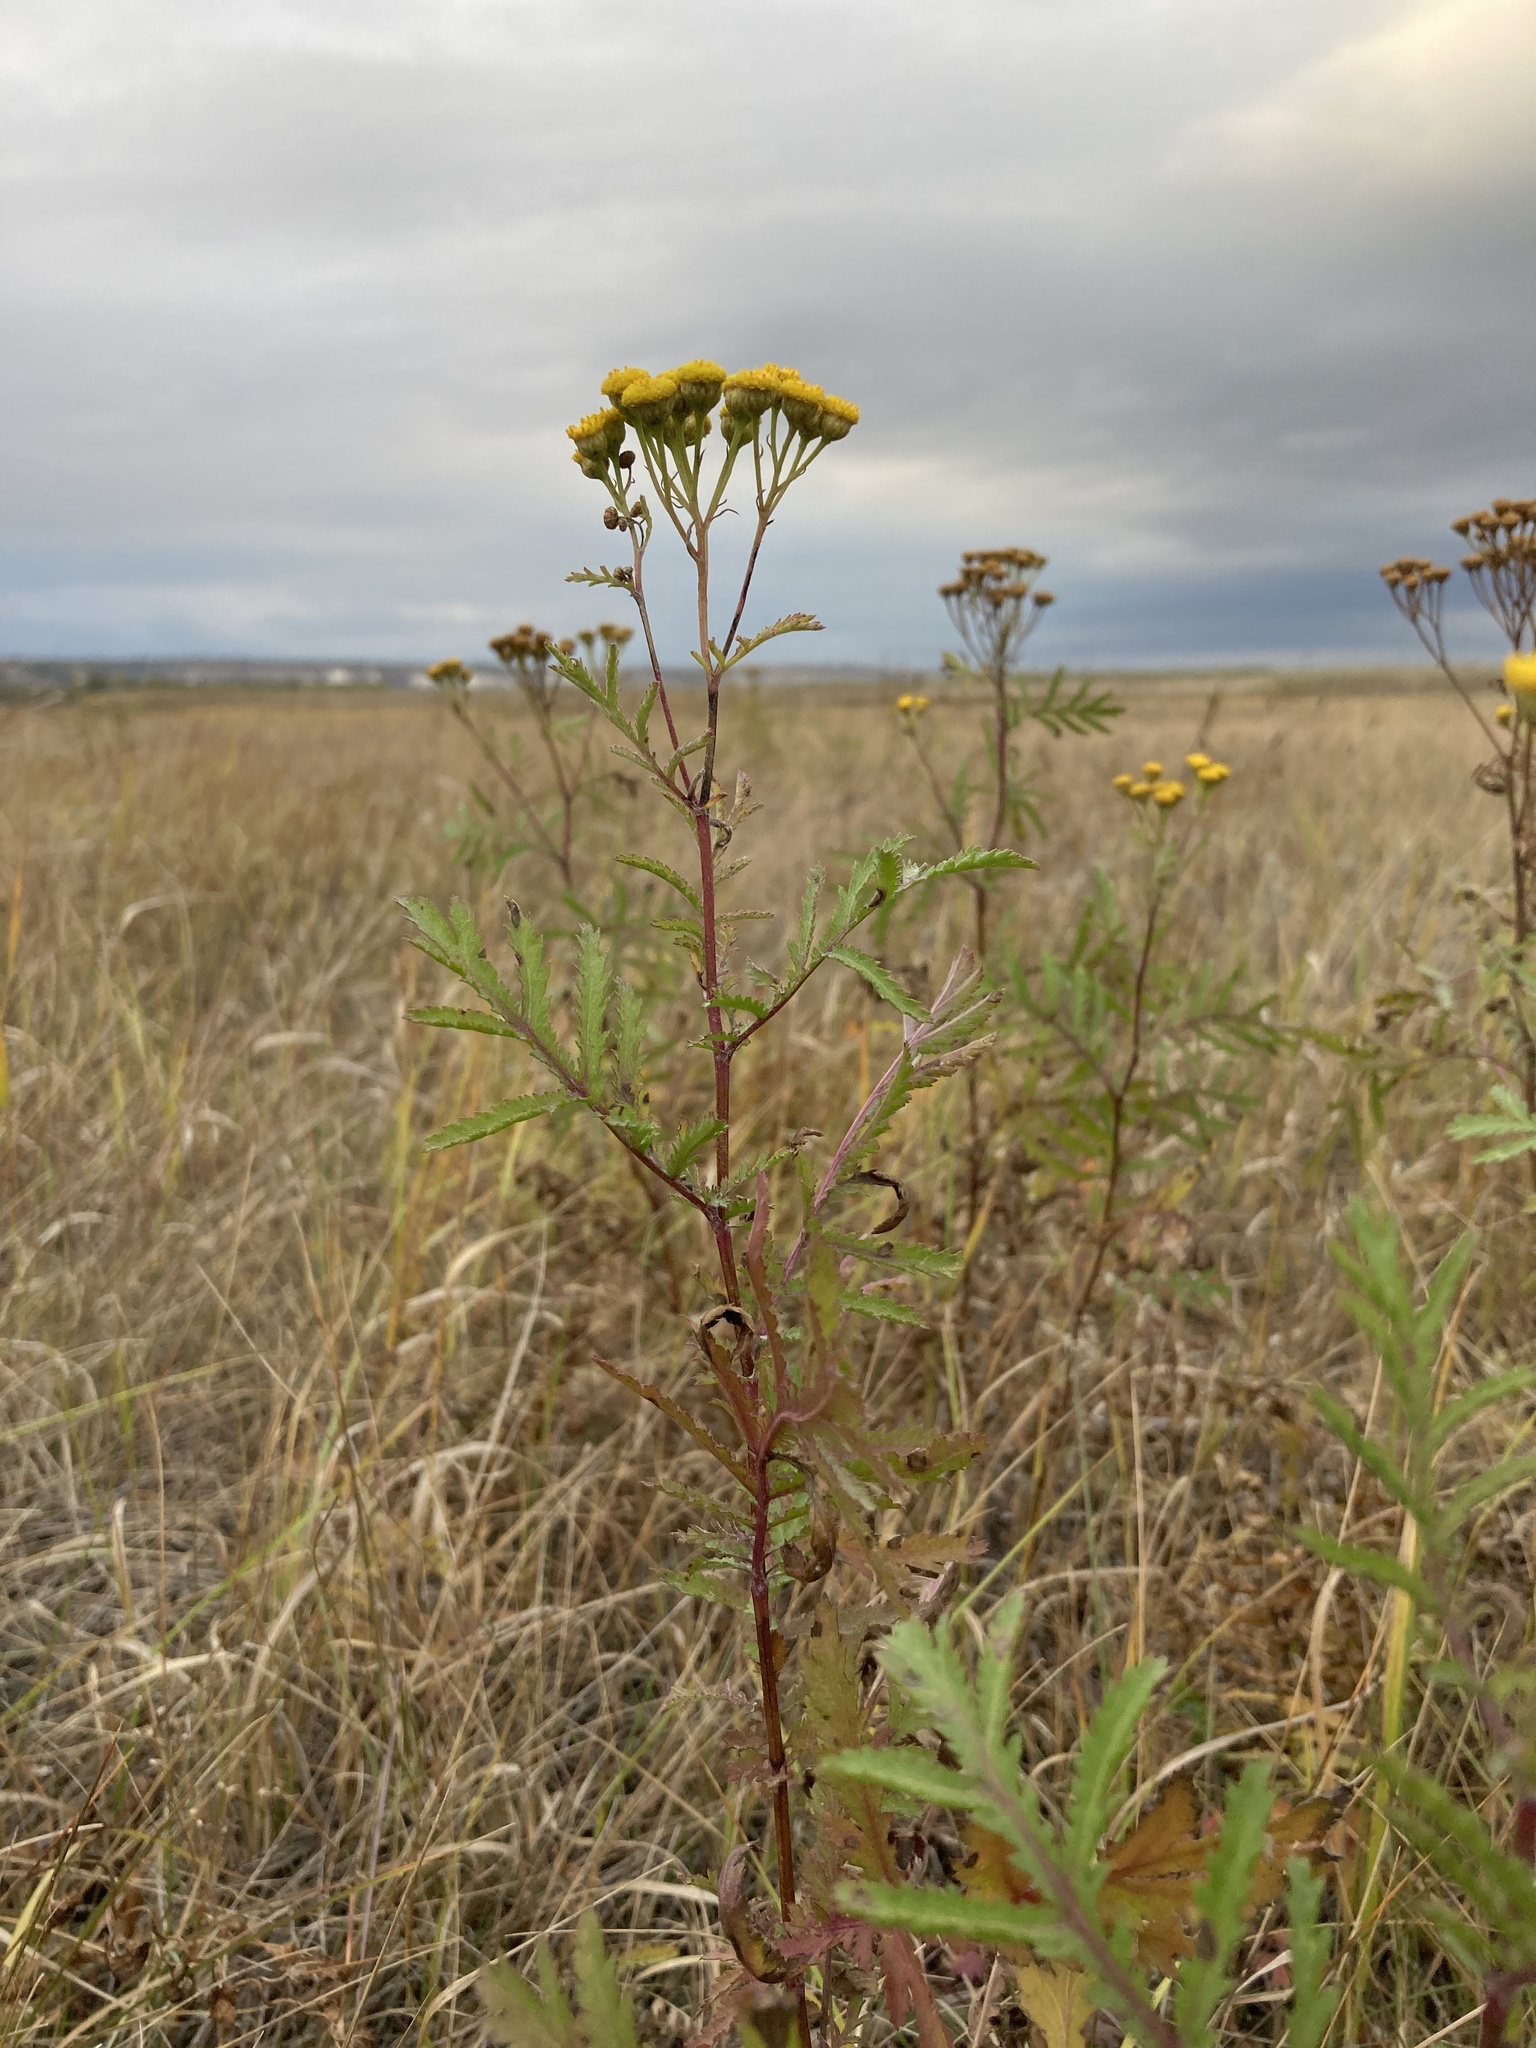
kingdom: Plantae
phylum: Tracheophyta
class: Magnoliopsida
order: Asterales
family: Asteraceae
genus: Tanacetum
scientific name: Tanacetum vulgare
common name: Common tansy
